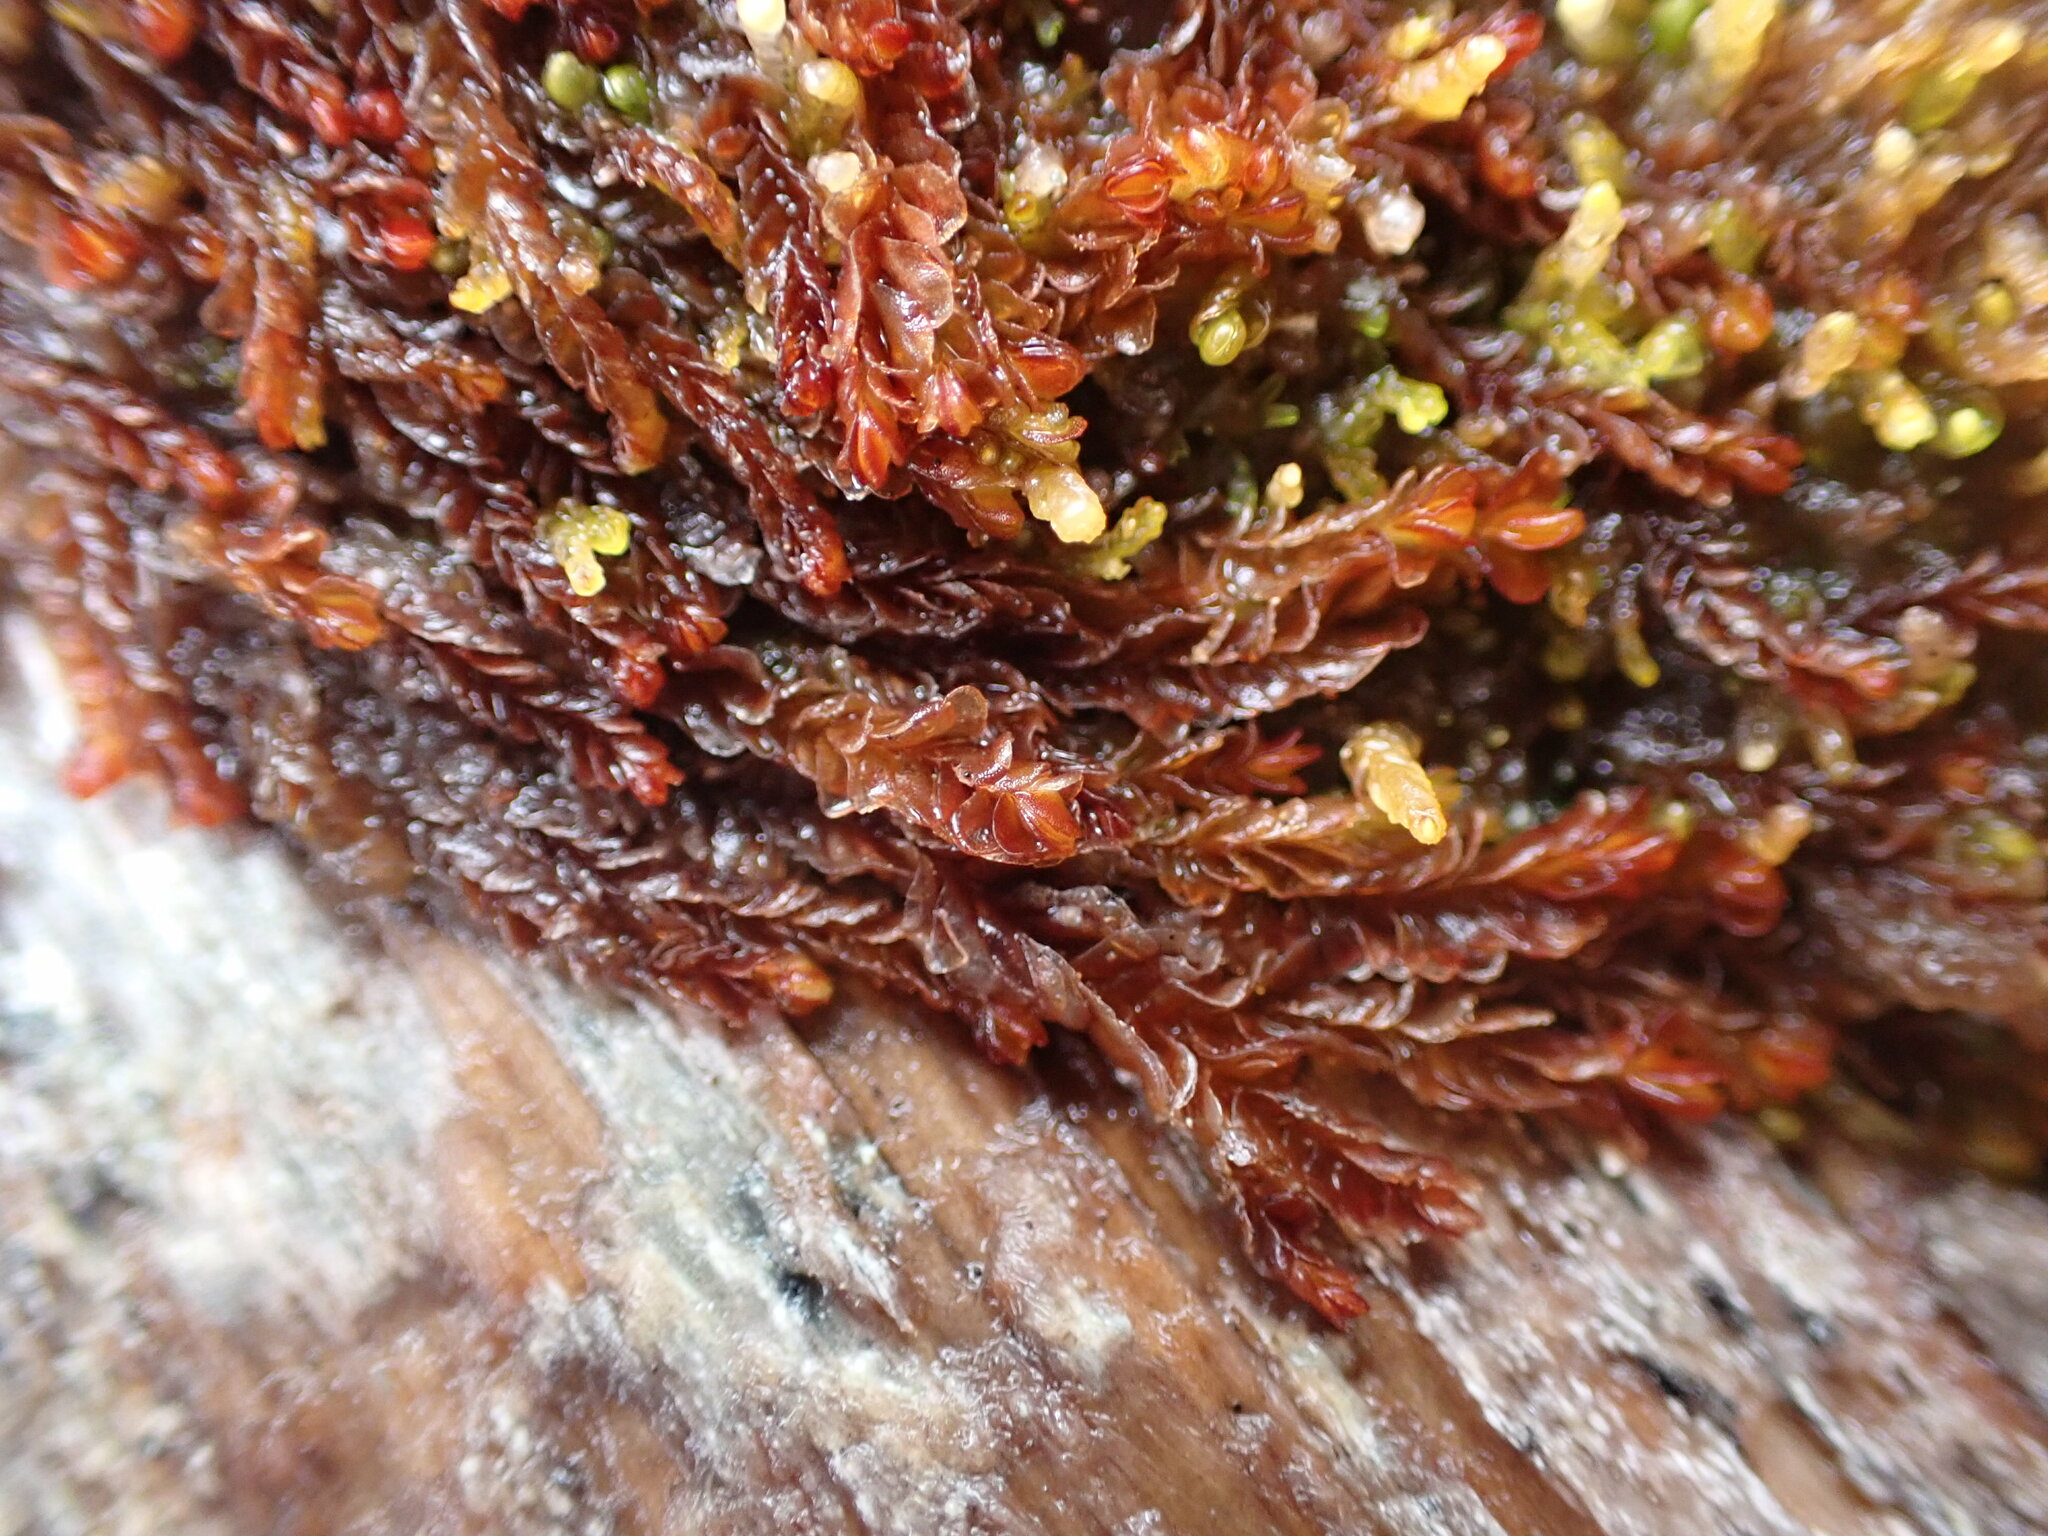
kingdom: Plantae
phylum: Marchantiophyta
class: Jungermanniopsida
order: Jungermanniales
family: Myliaceae
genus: Mylia
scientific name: Mylia taylorii
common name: Taylor s flapwort
